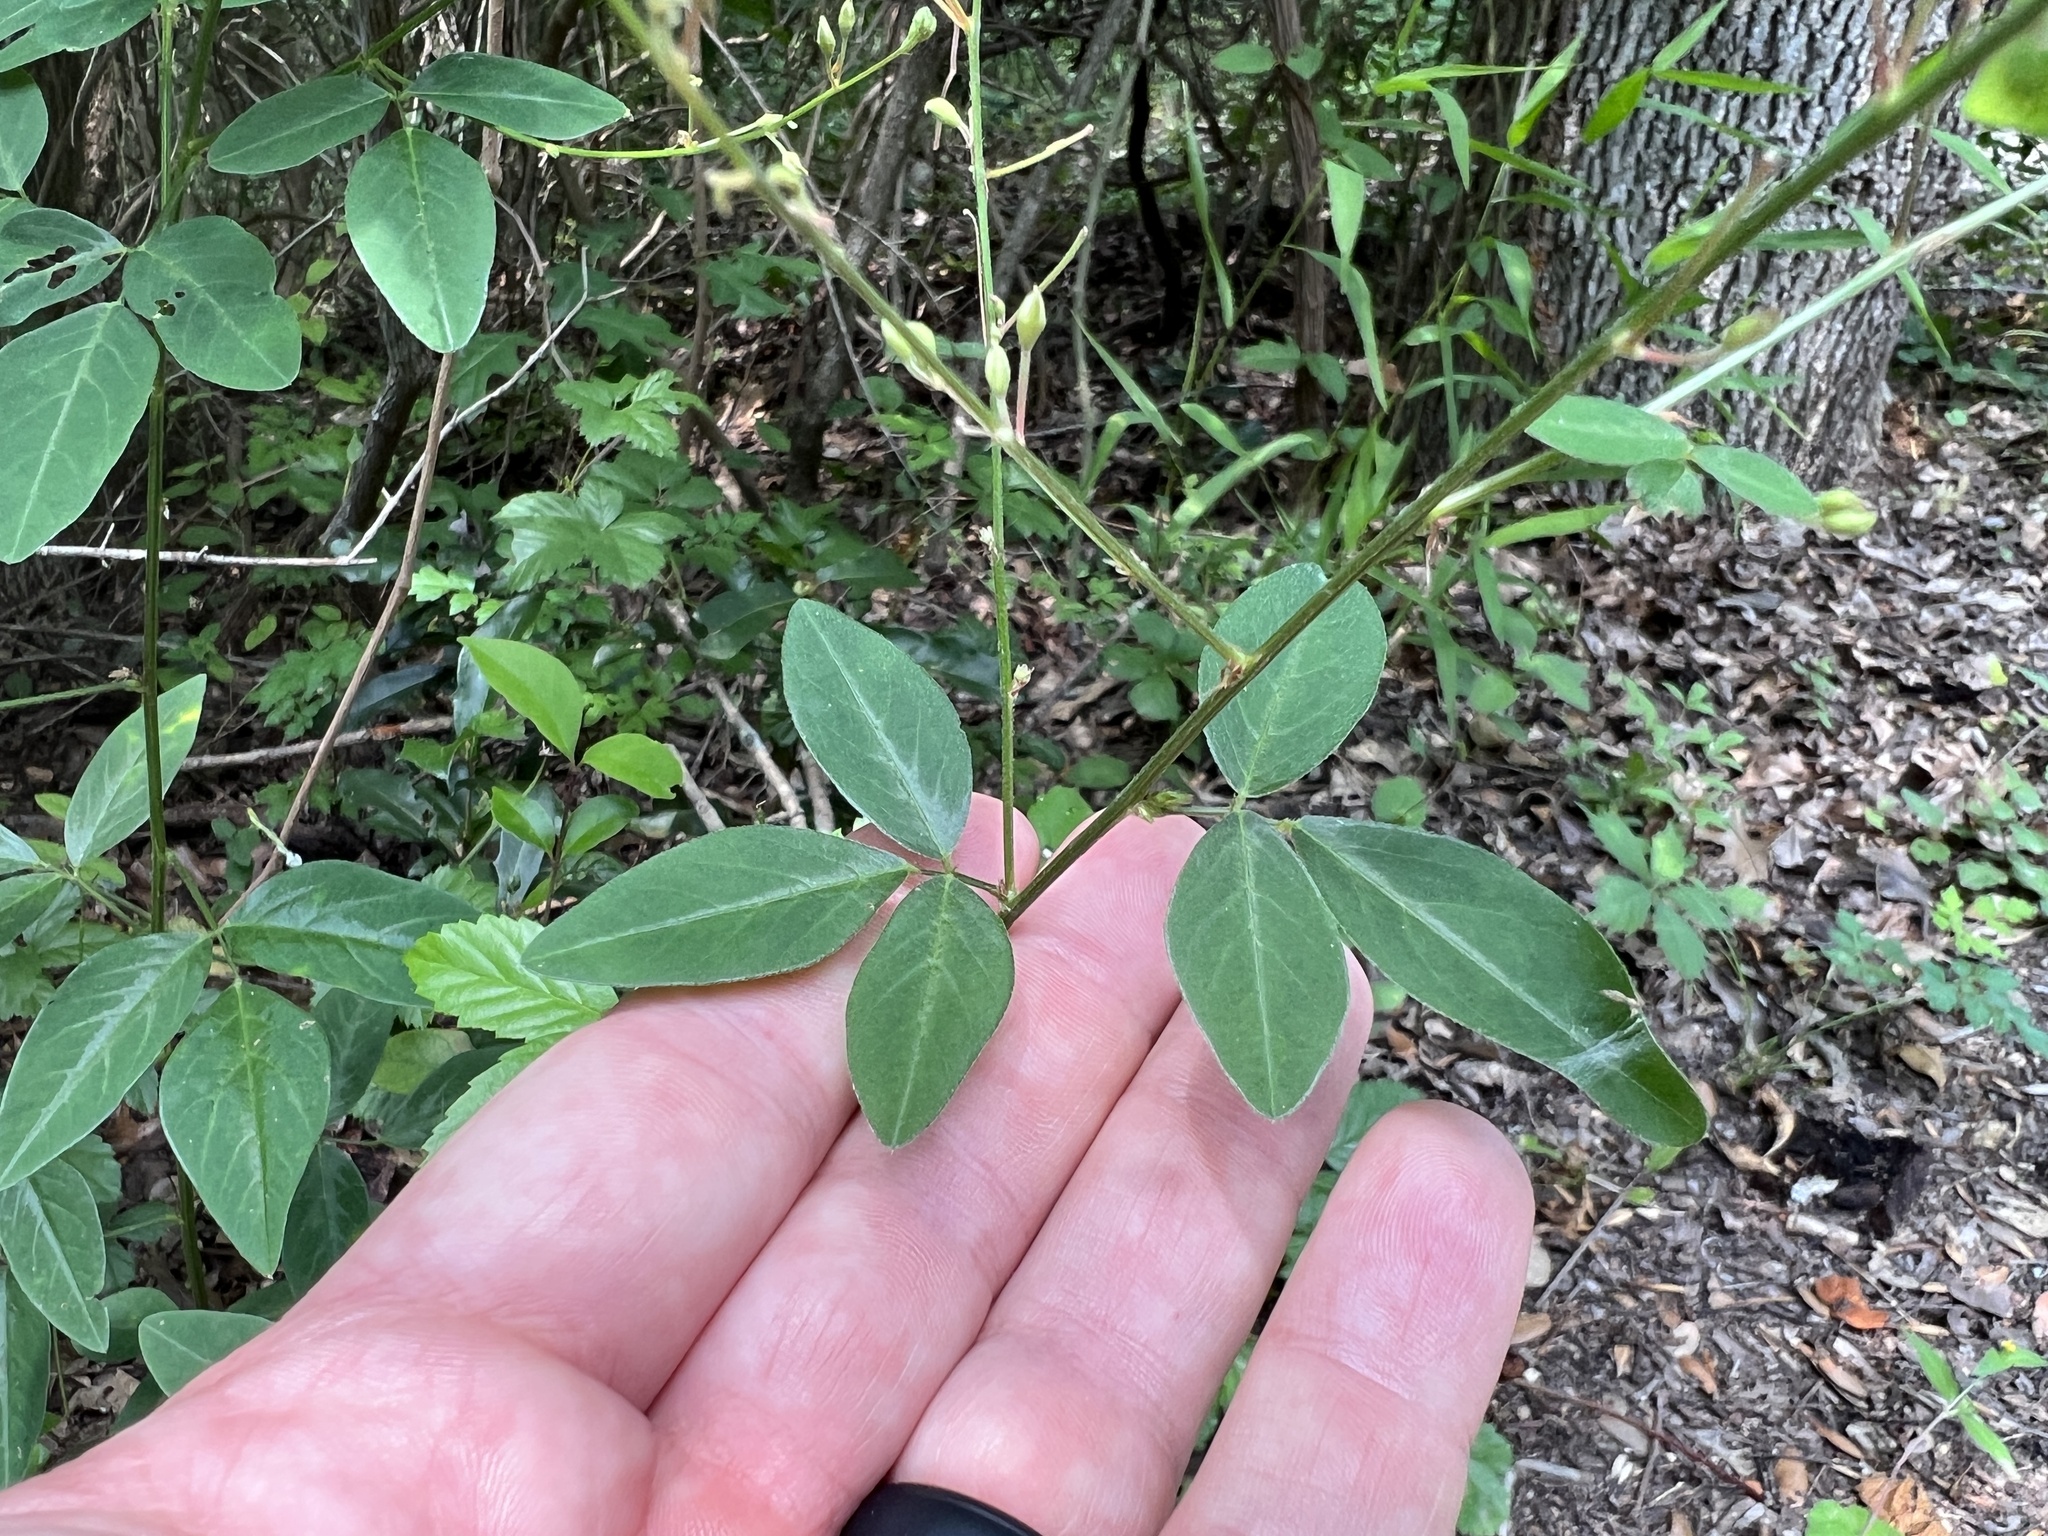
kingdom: Plantae
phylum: Tracheophyta
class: Magnoliopsida
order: Fabales
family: Fabaceae
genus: Desmodium
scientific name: Desmodium paniculatum
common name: Panicled tick-clover
